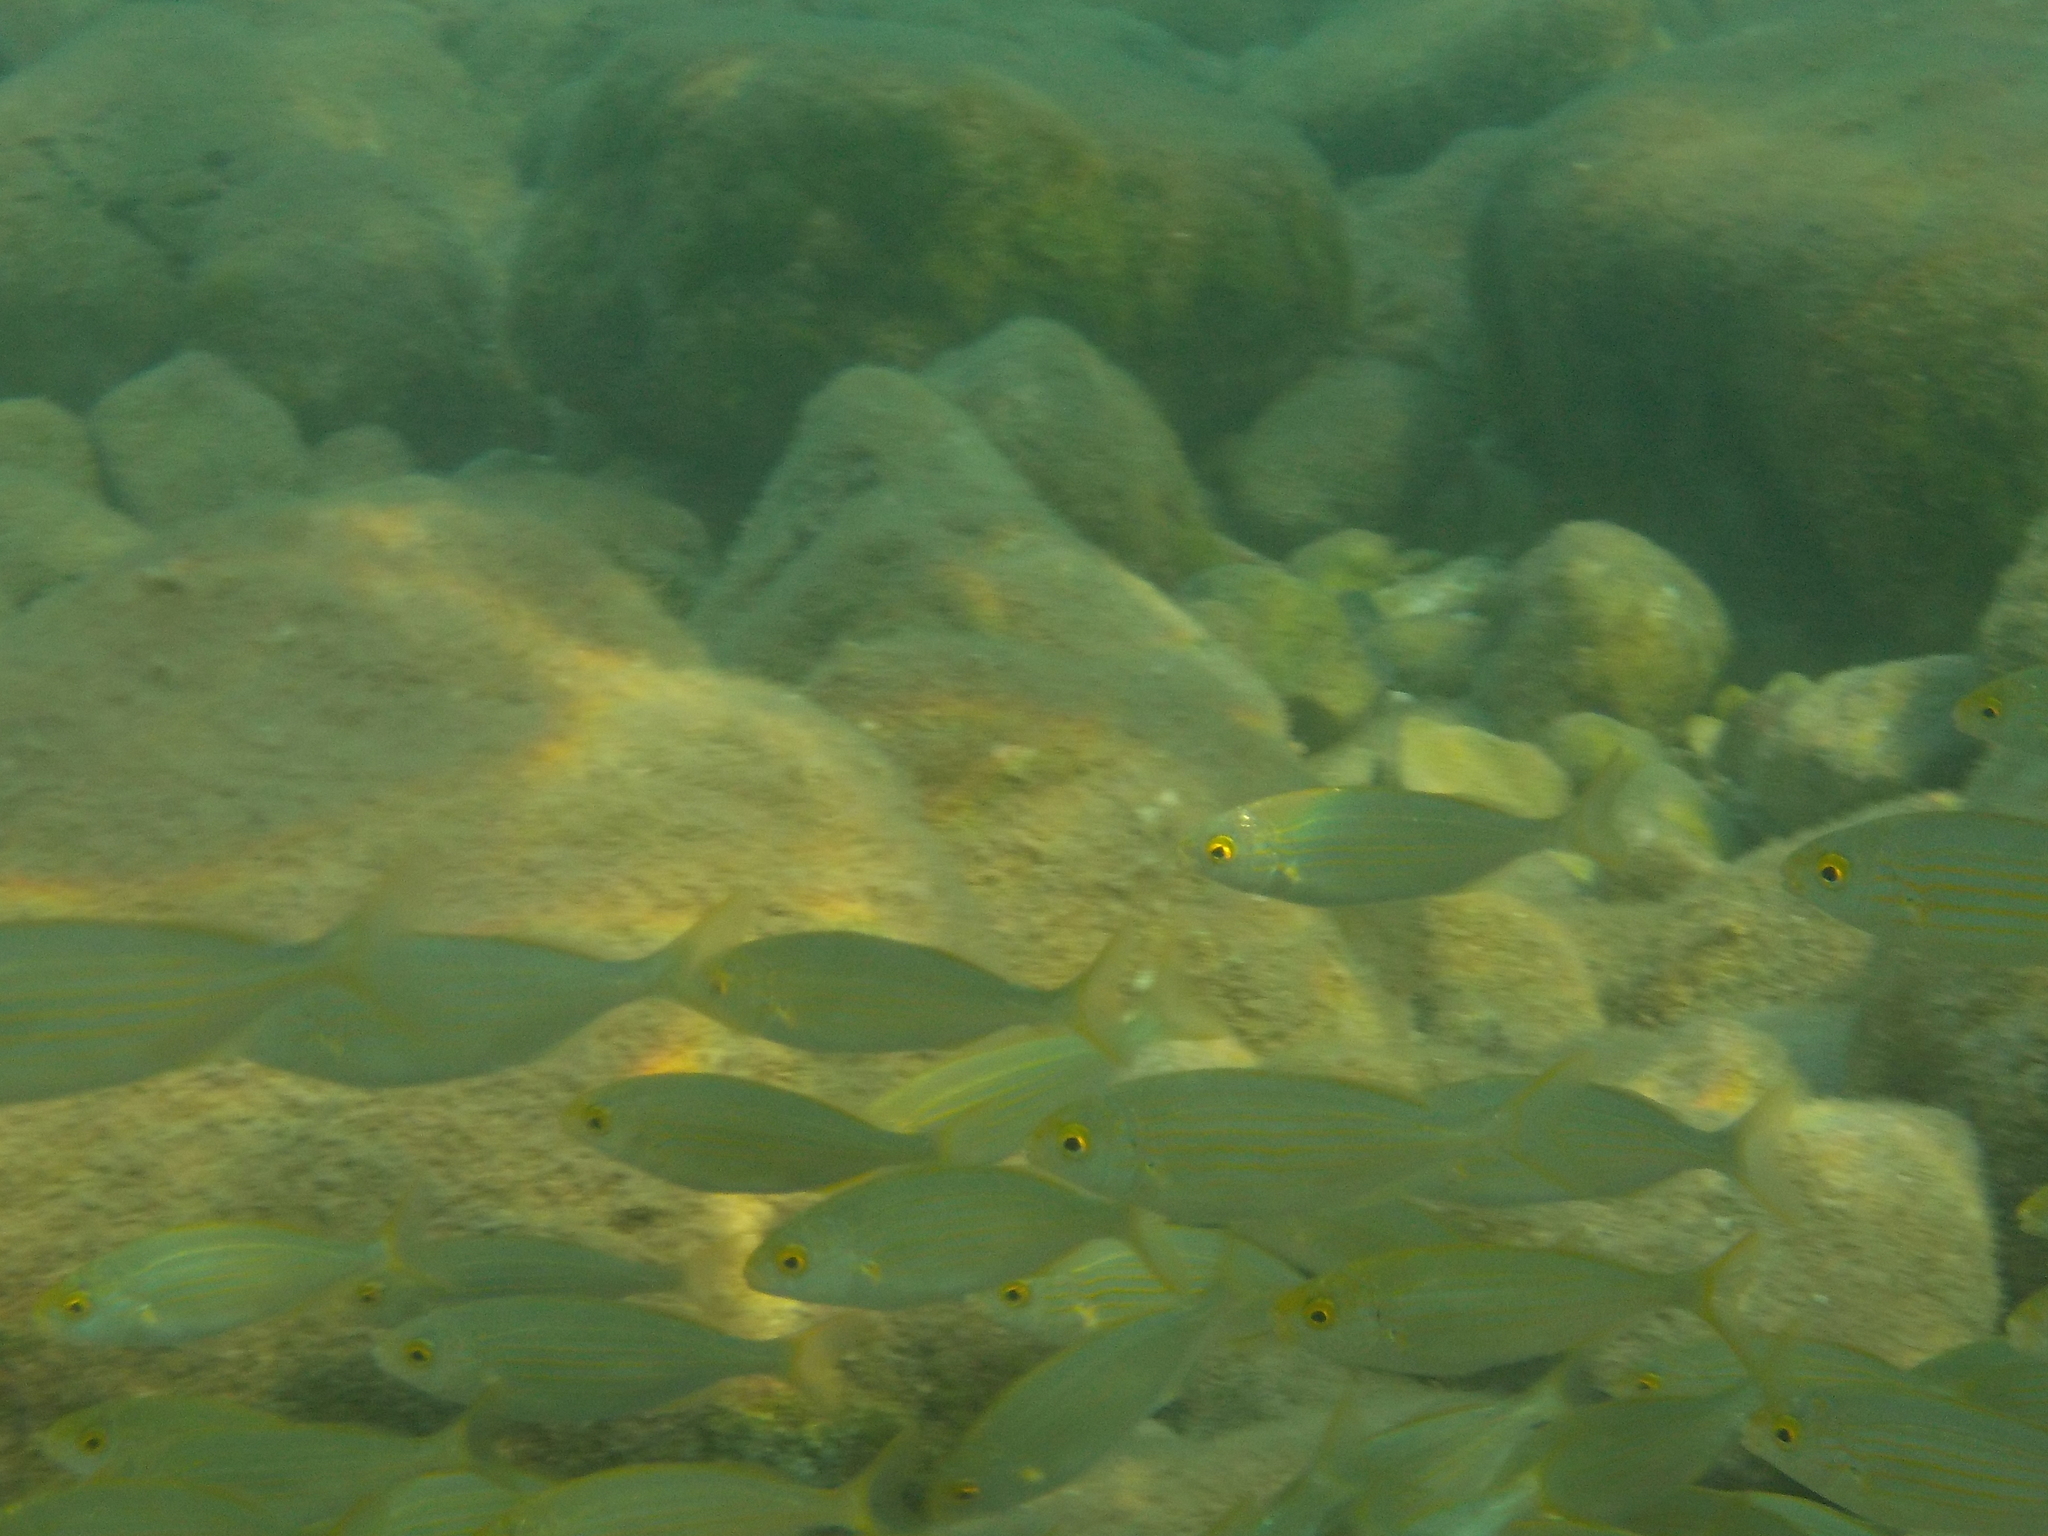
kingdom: Animalia
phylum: Chordata
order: Perciformes
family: Sparidae
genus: Sarpa
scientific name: Sarpa salpa
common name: Salema
